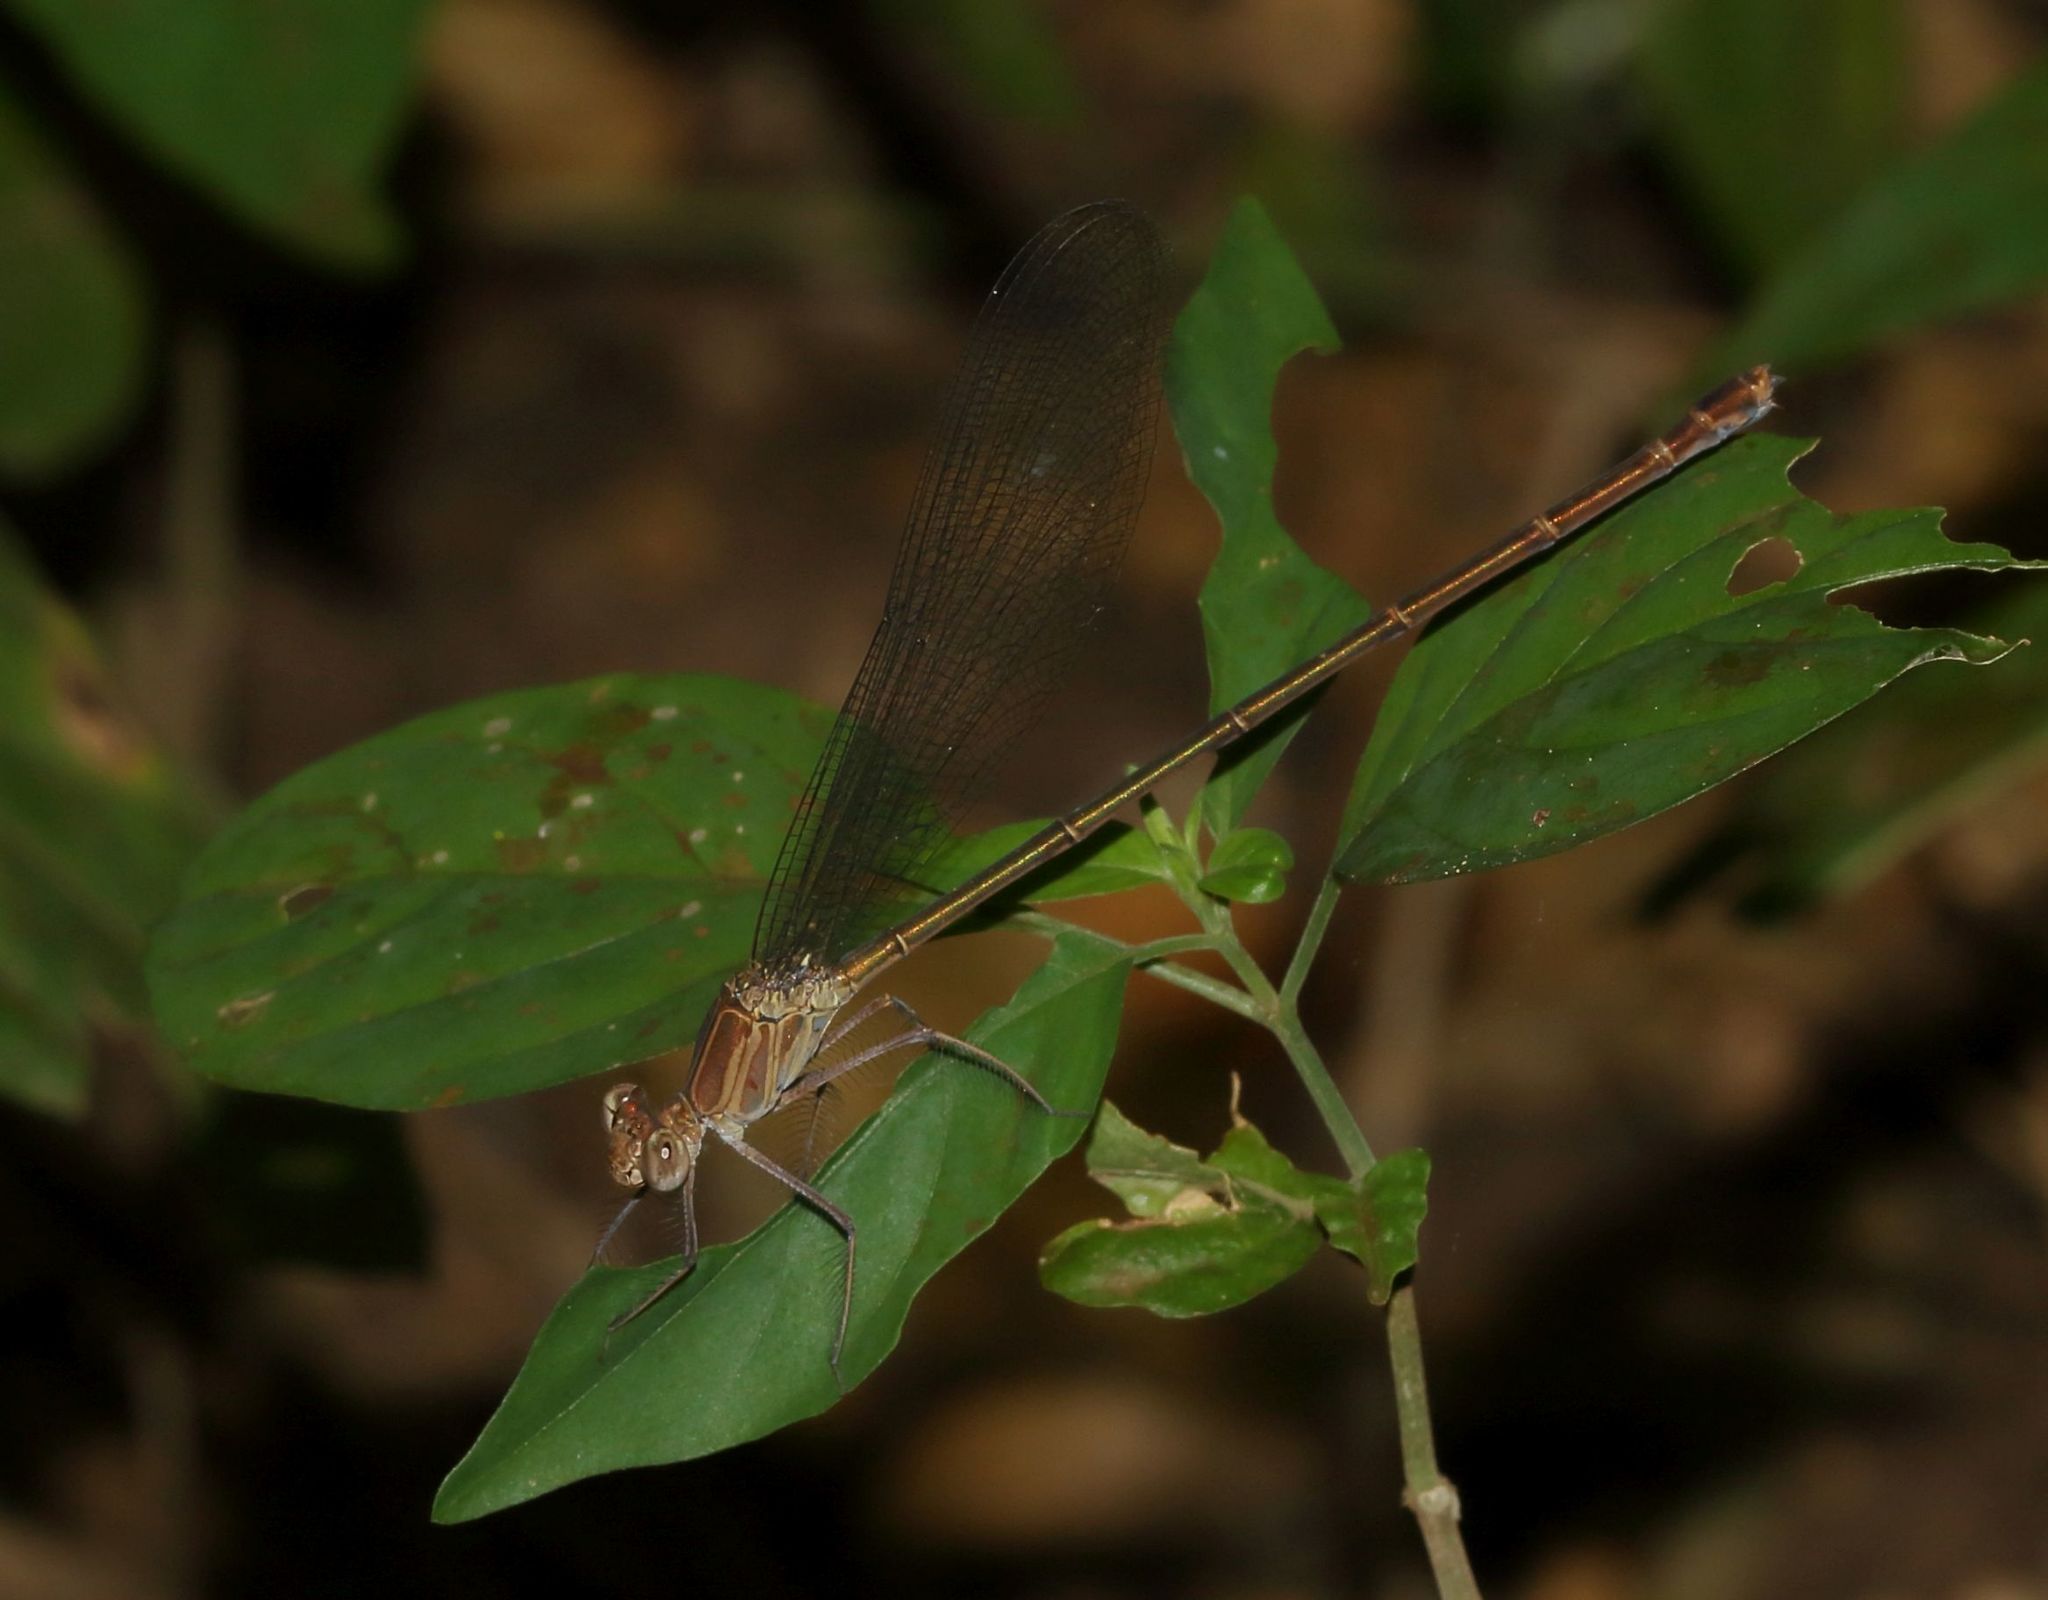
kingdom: Animalia
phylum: Arthropoda
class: Insecta
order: Odonata
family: Calopterygidae
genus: Phaon
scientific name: Phaon iridipennis
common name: Glistening demoiselle
